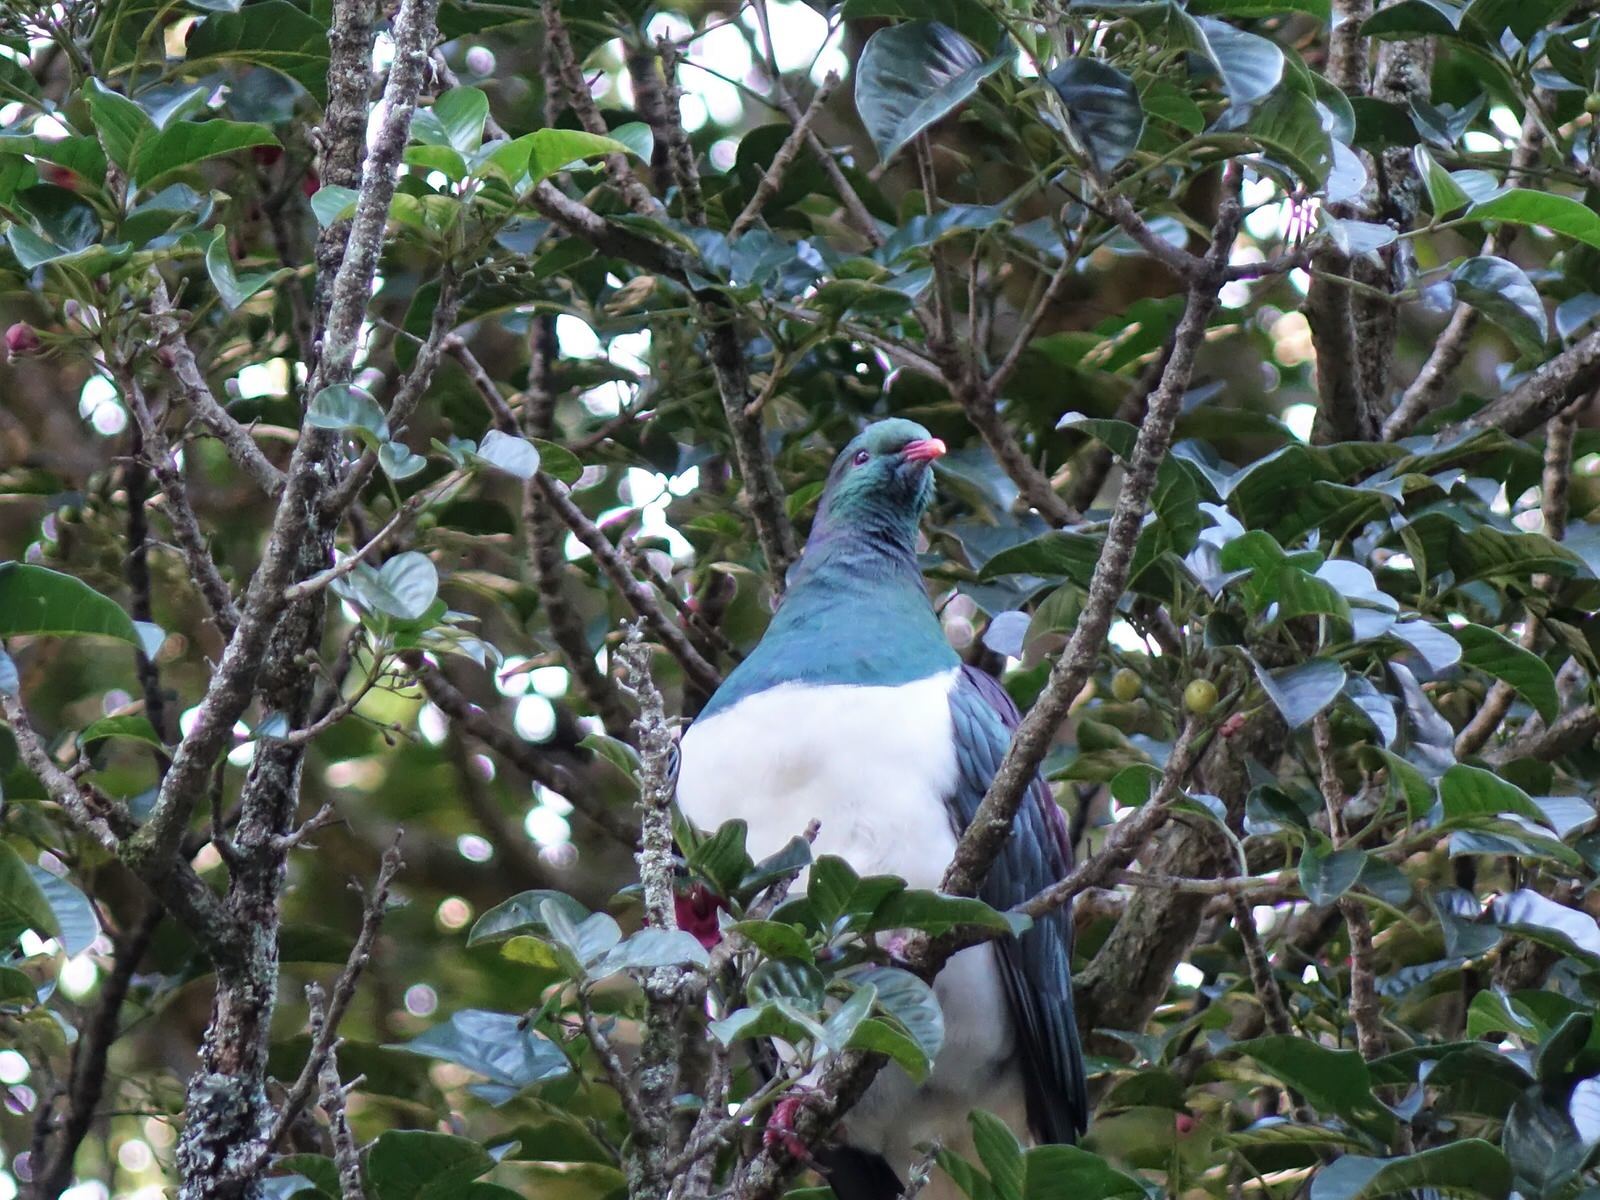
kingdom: Animalia
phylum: Chordata
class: Aves
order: Columbiformes
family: Columbidae
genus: Hemiphaga
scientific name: Hemiphaga novaeseelandiae
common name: New zealand pigeon
